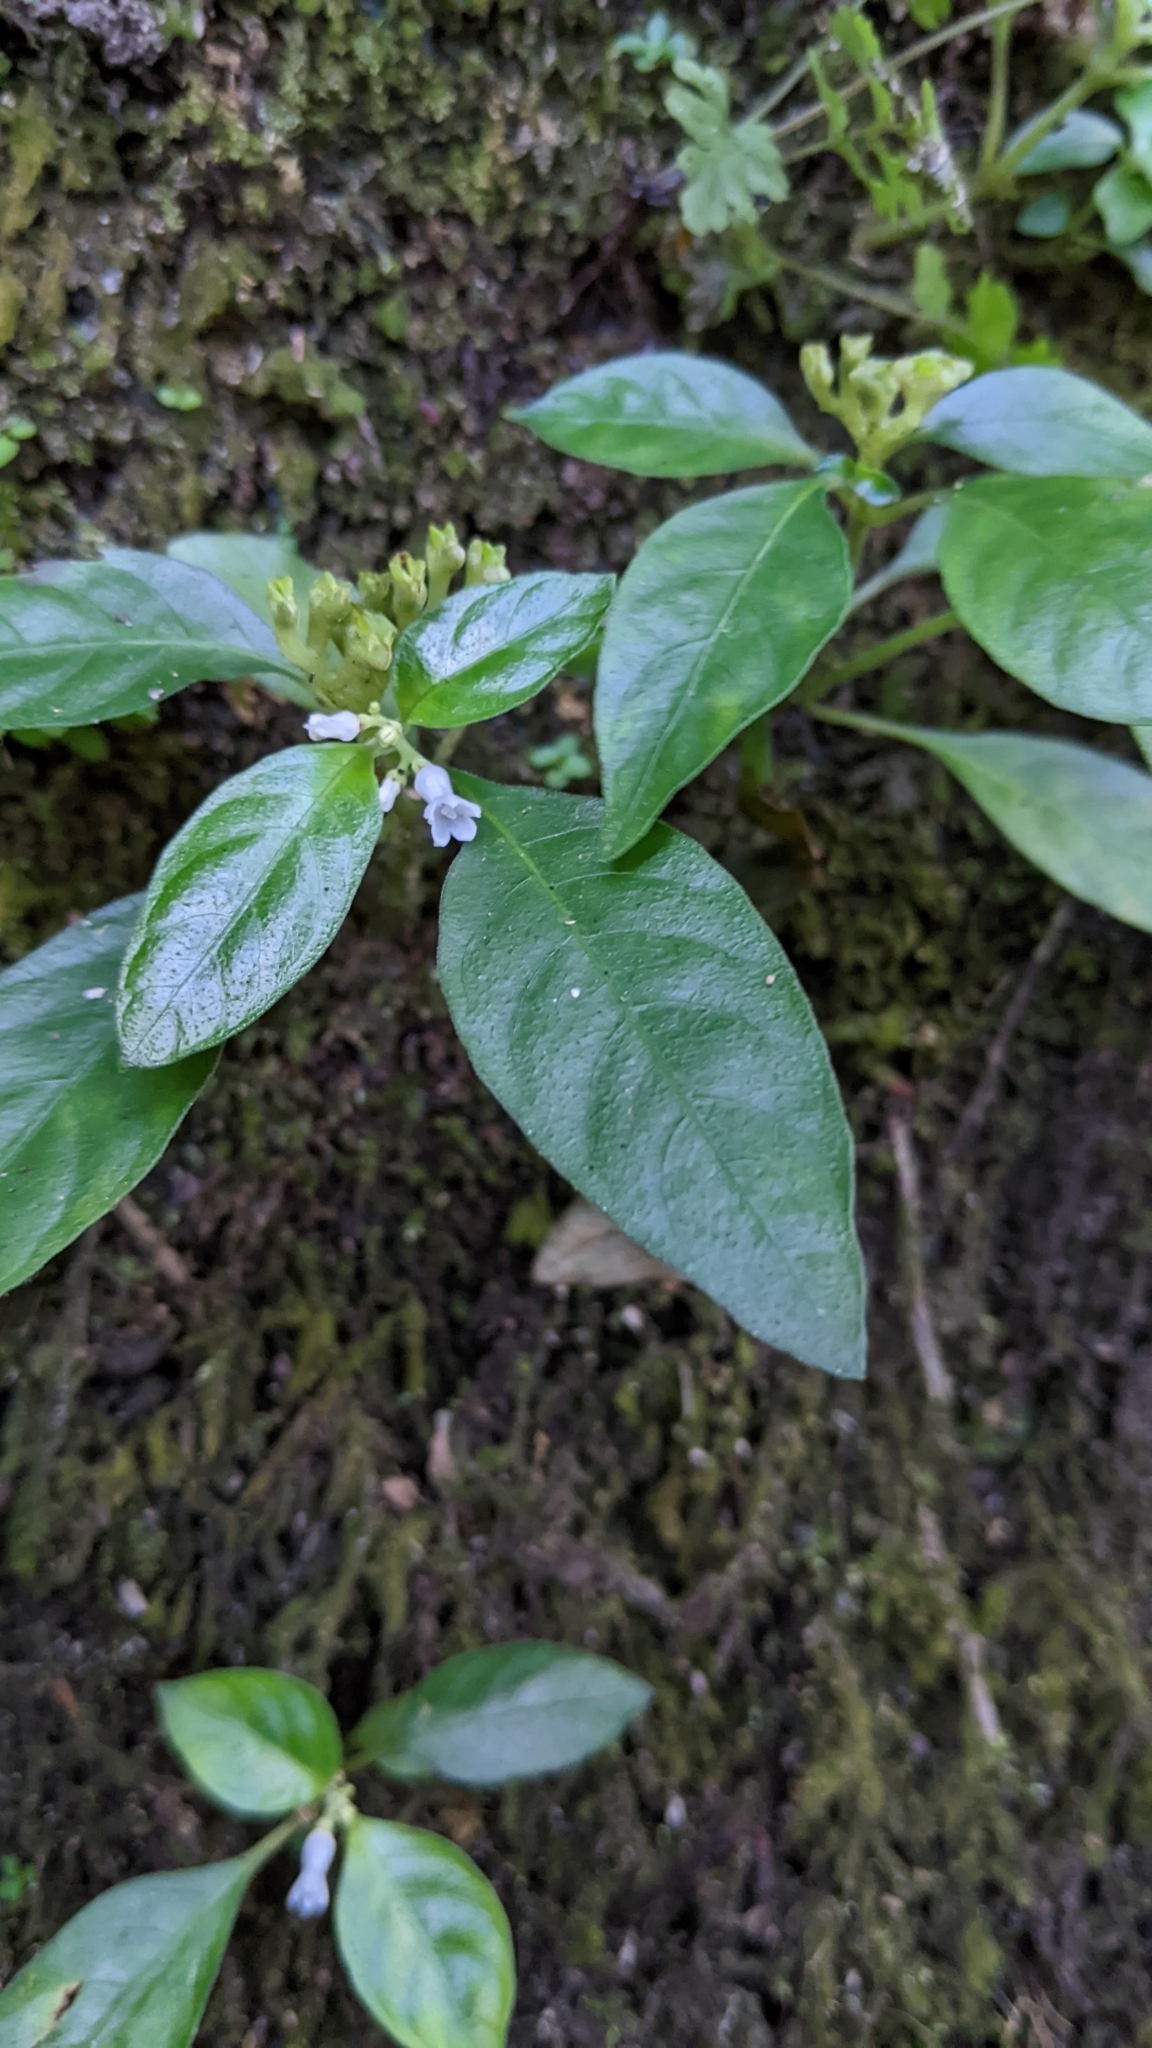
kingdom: Plantae
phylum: Tracheophyta
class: Magnoliopsida
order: Gentianales
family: Rubiaceae
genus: Ophiorrhiza
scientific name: Ophiorrhiza pumila
